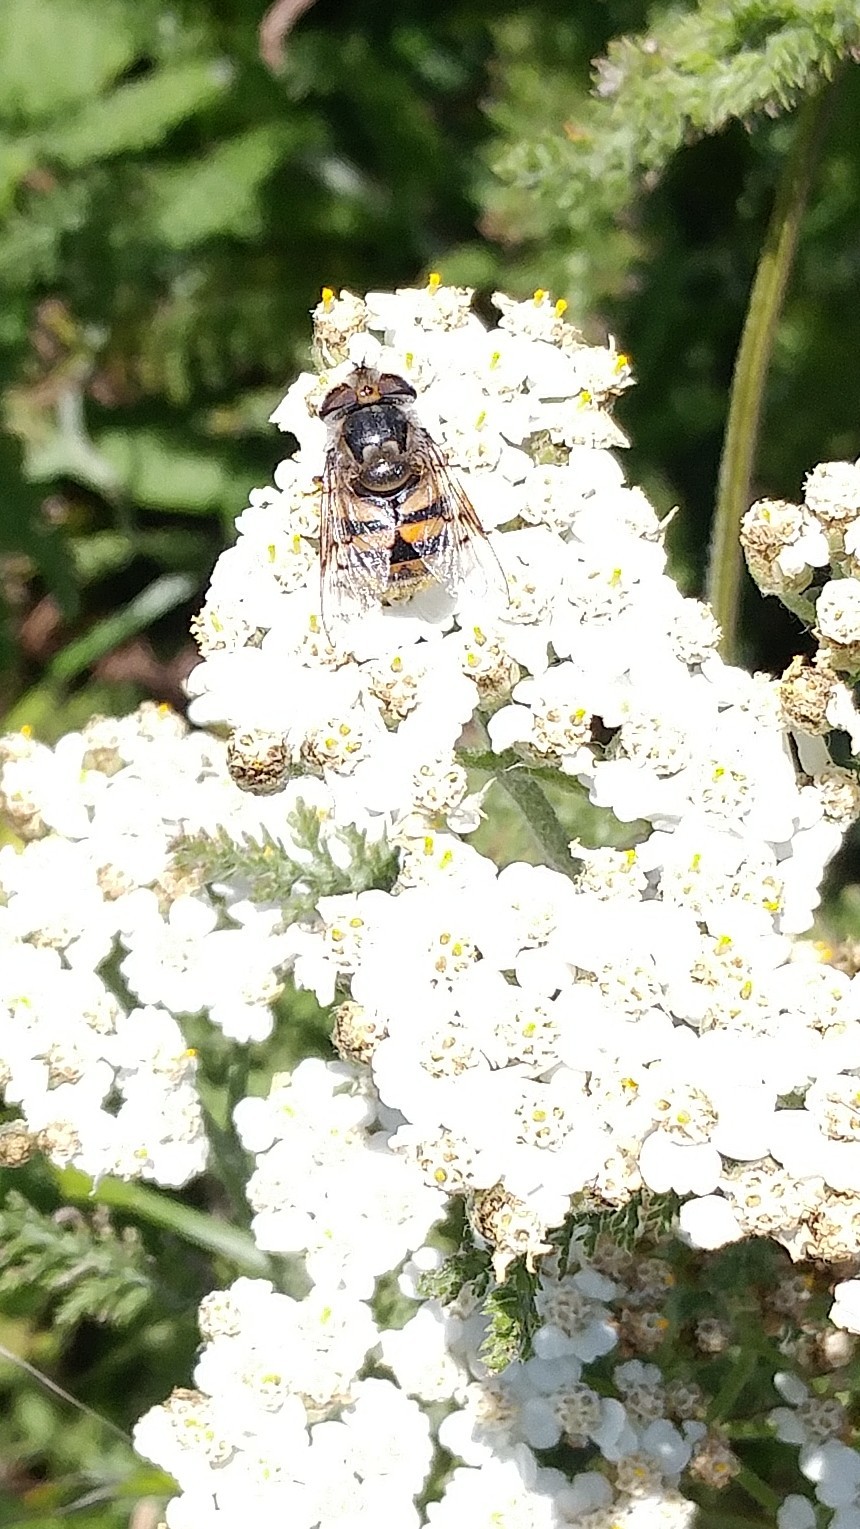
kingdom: Animalia
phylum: Arthropoda
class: Insecta
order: Diptera
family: Syrphidae
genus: Copestylum
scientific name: Copestylum avidum
